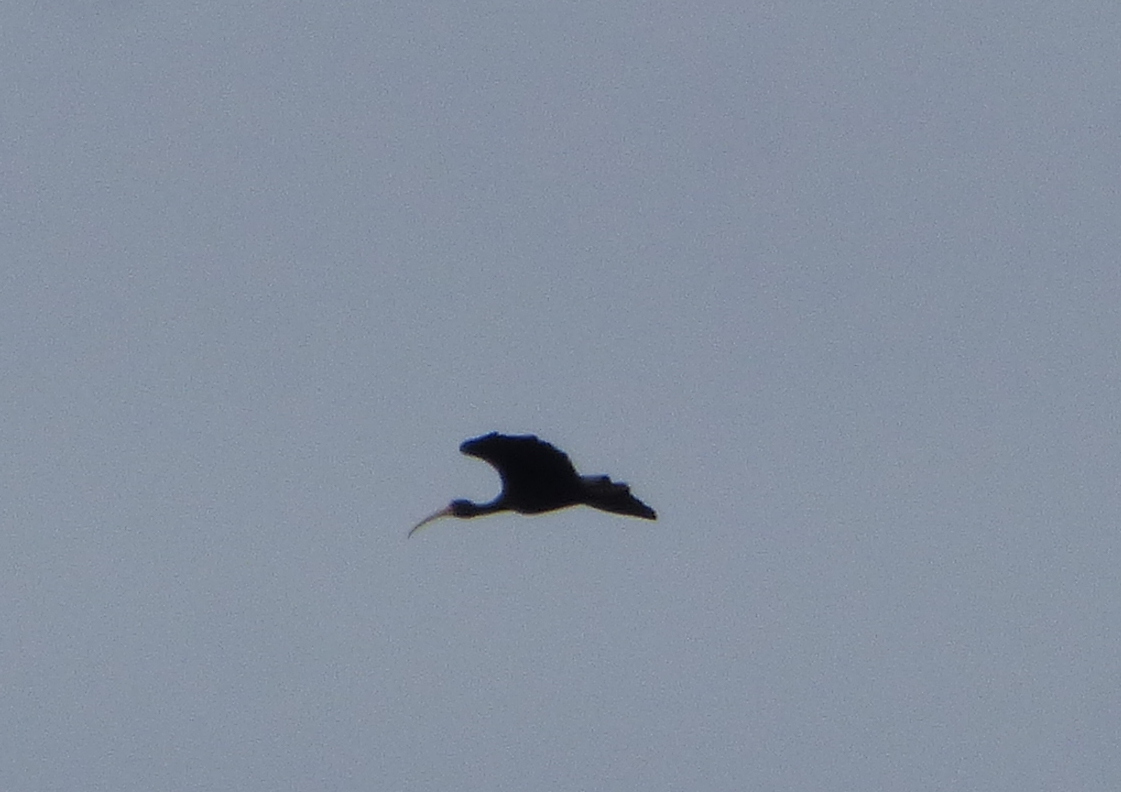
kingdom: Animalia
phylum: Chordata
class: Aves
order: Pelecaniformes
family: Threskiornithidae
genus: Phimosus
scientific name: Phimosus infuscatus
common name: Bare-faced ibis
